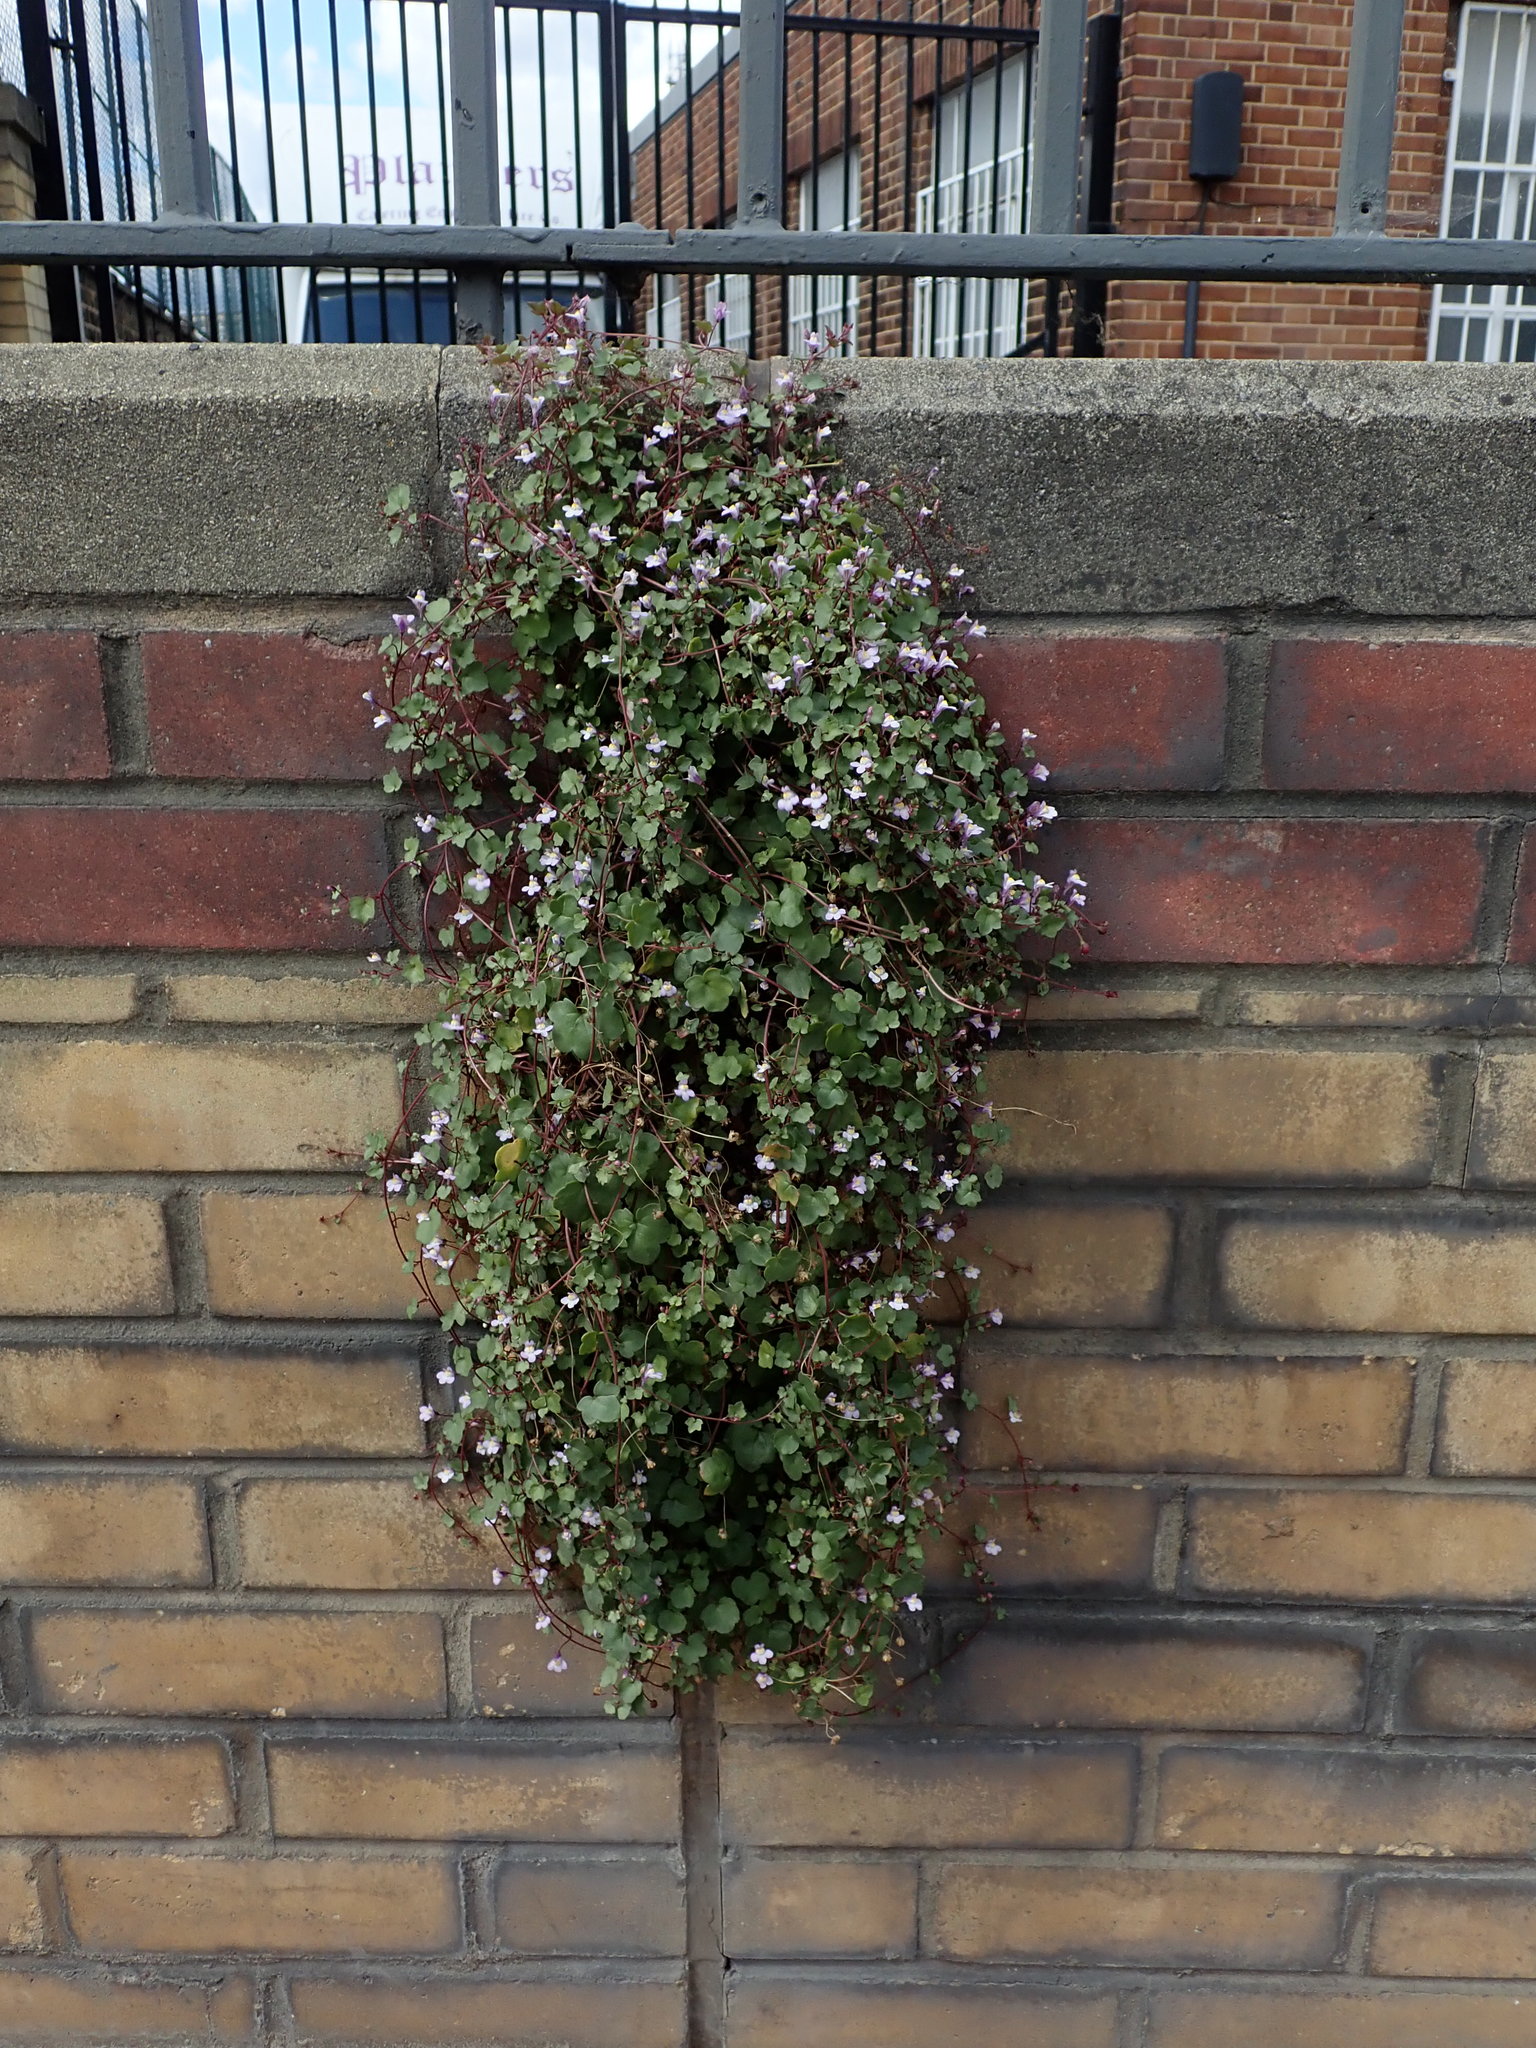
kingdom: Plantae
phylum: Tracheophyta
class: Magnoliopsida
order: Lamiales
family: Plantaginaceae
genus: Cymbalaria
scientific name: Cymbalaria muralis
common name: Ivy-leaved toadflax
